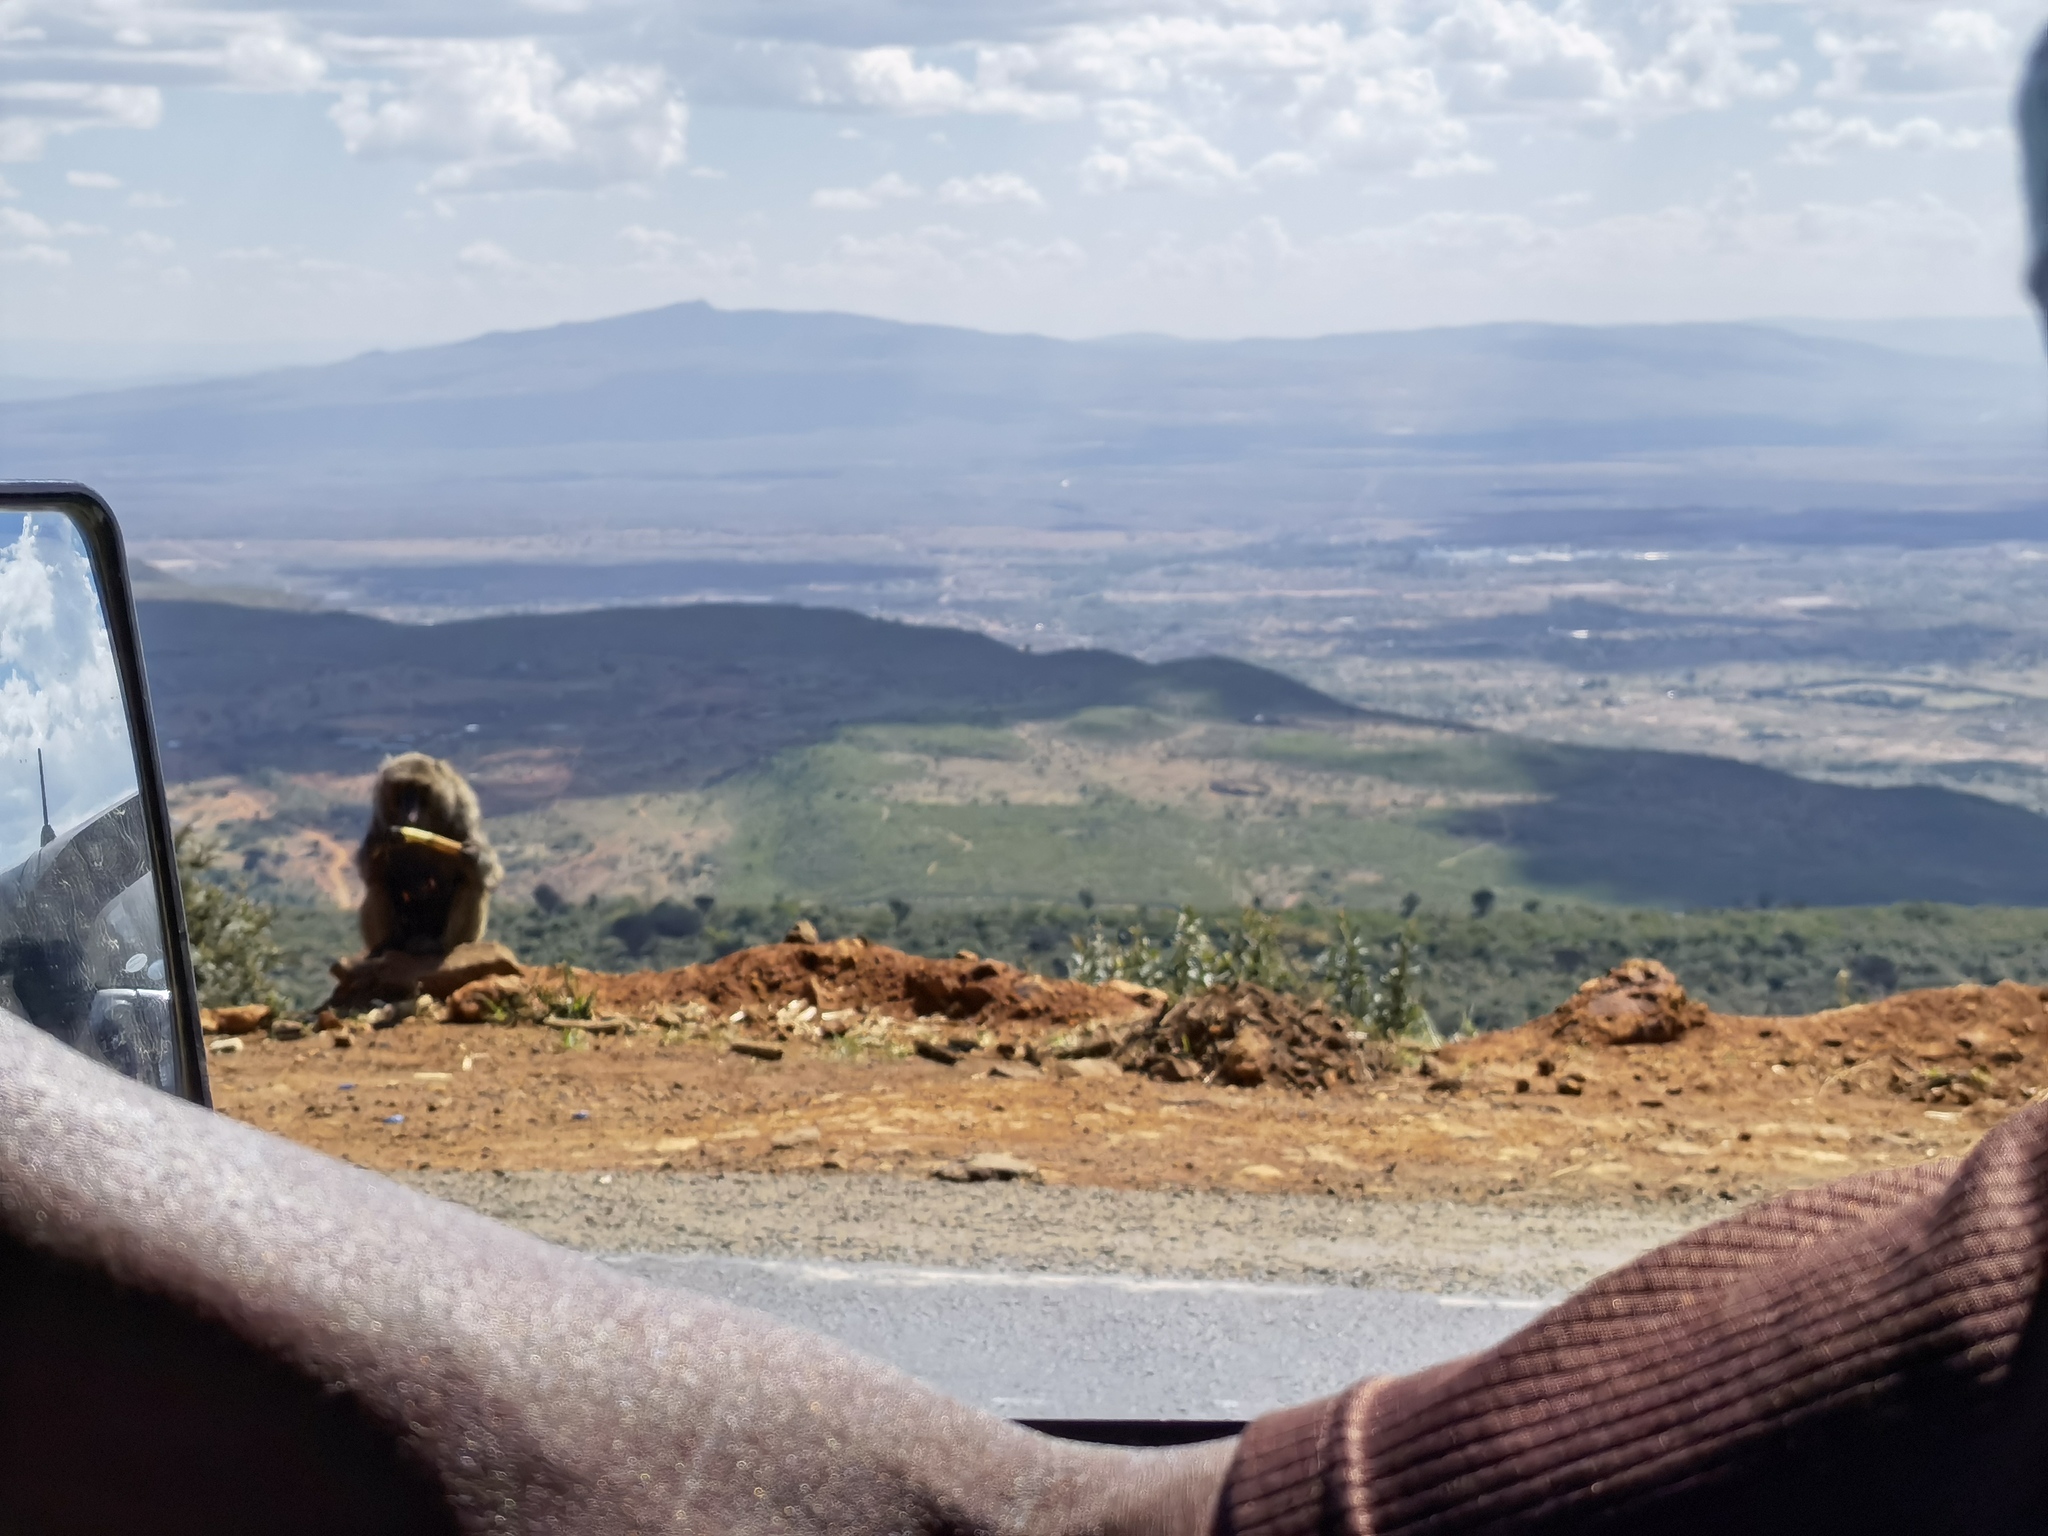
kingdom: Animalia
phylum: Chordata
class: Mammalia
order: Primates
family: Cercopithecidae
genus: Papio
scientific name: Papio anubis
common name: Olive baboon
